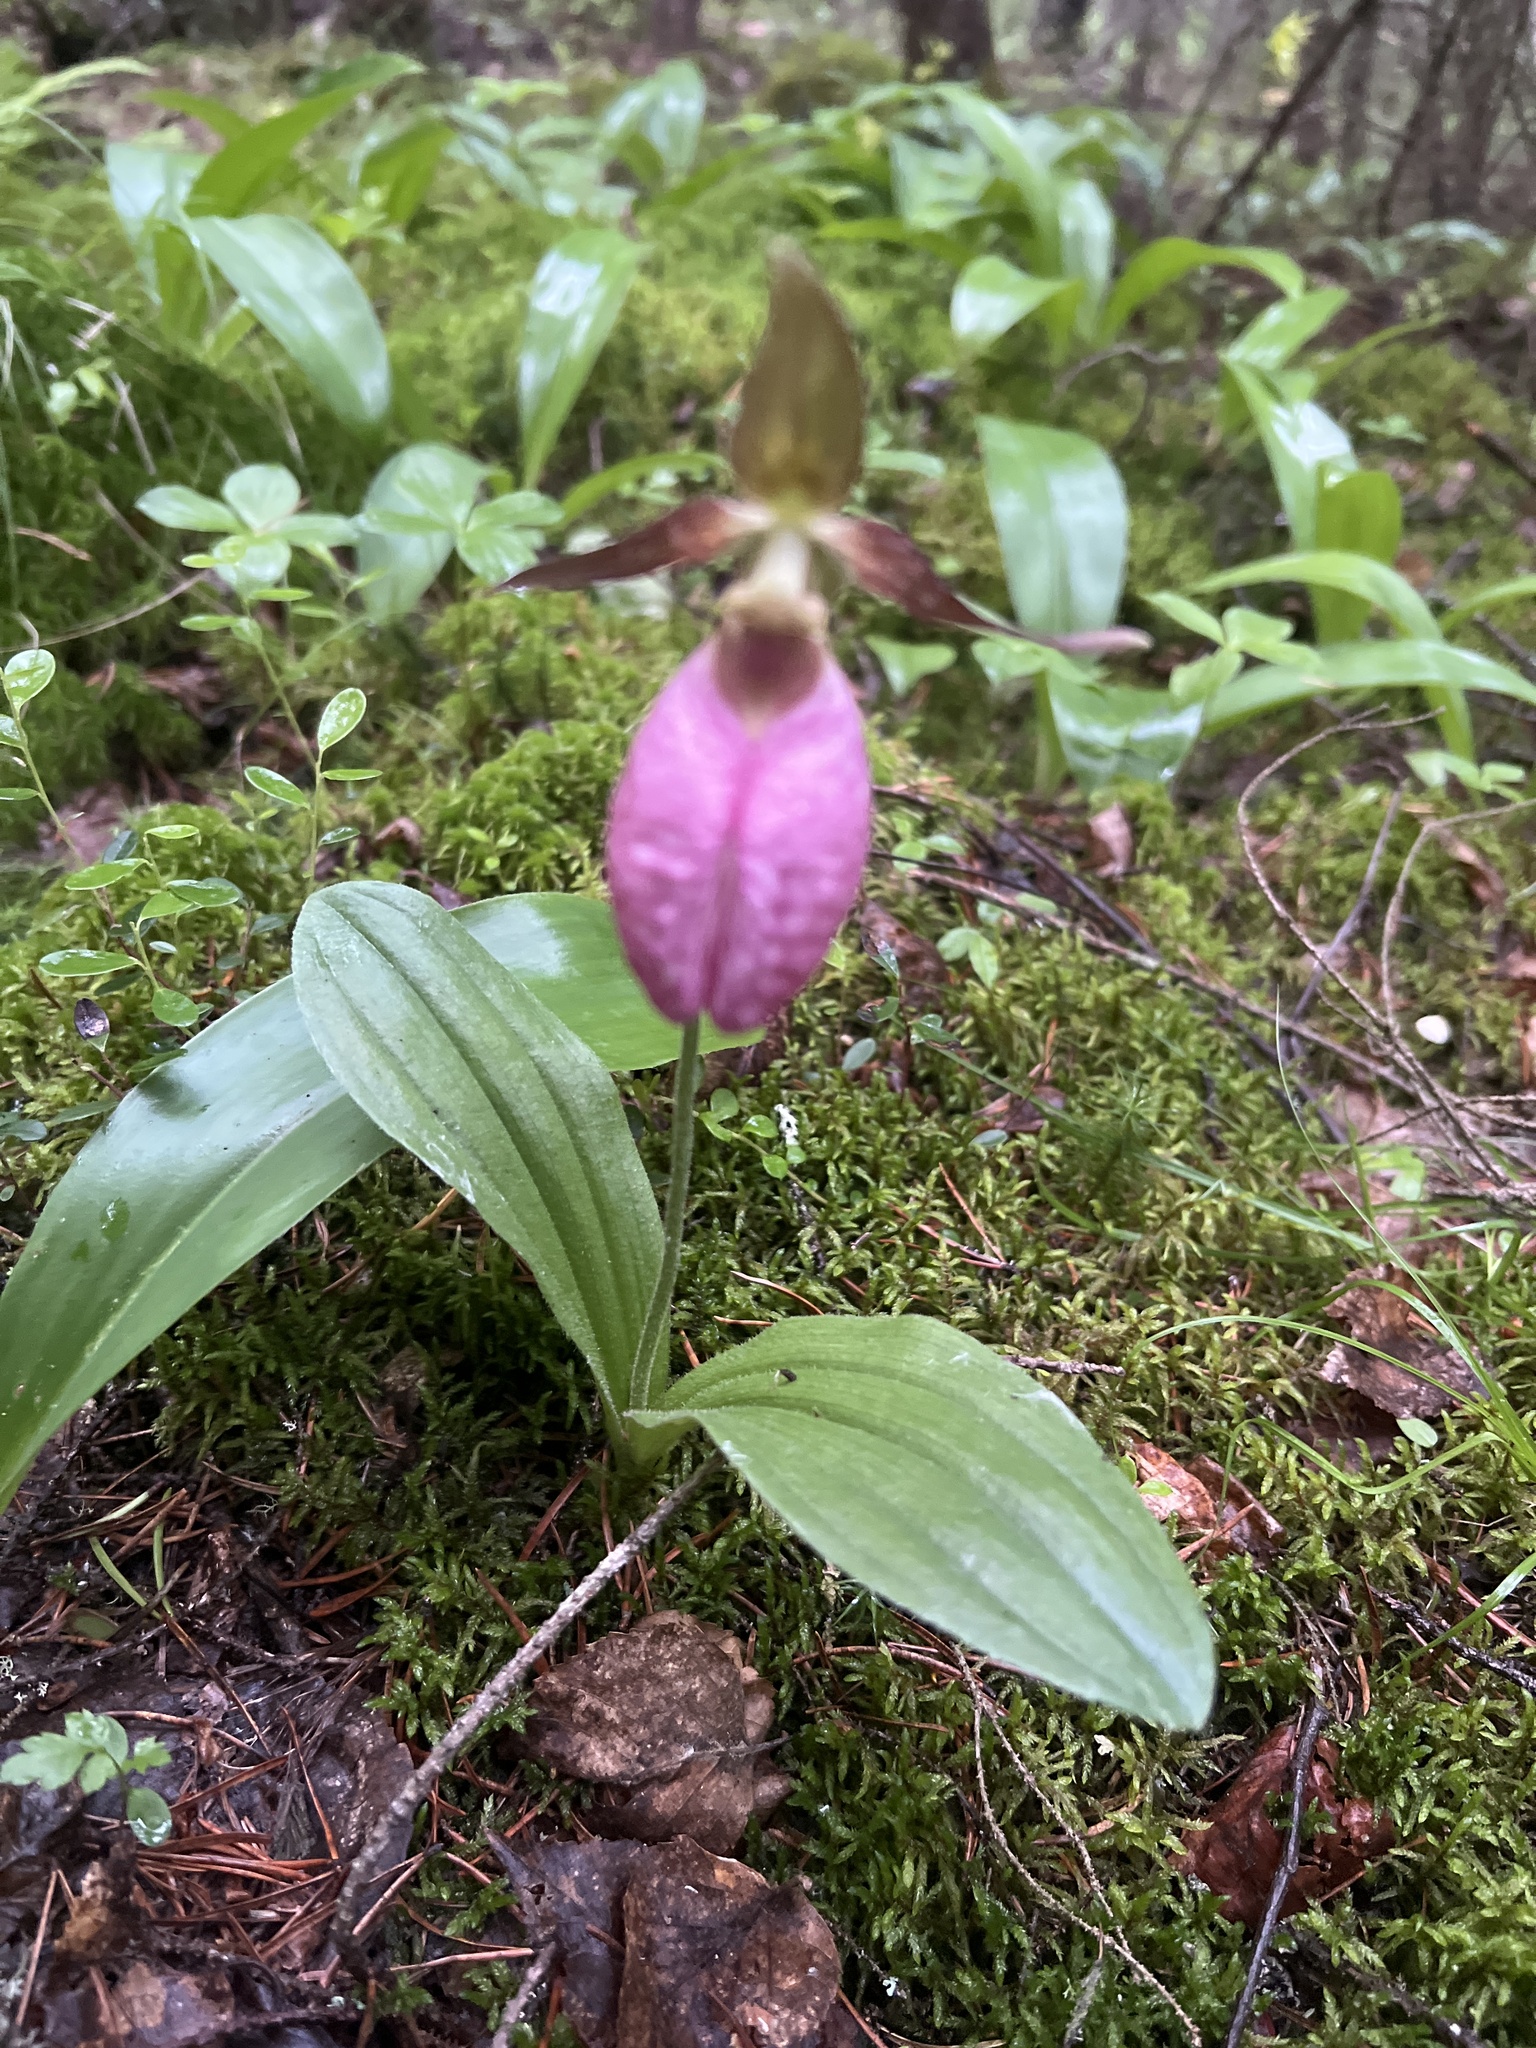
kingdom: Plantae
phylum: Tracheophyta
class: Liliopsida
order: Asparagales
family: Orchidaceae
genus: Cypripedium
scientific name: Cypripedium acaule
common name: Pink lady's-slipper
